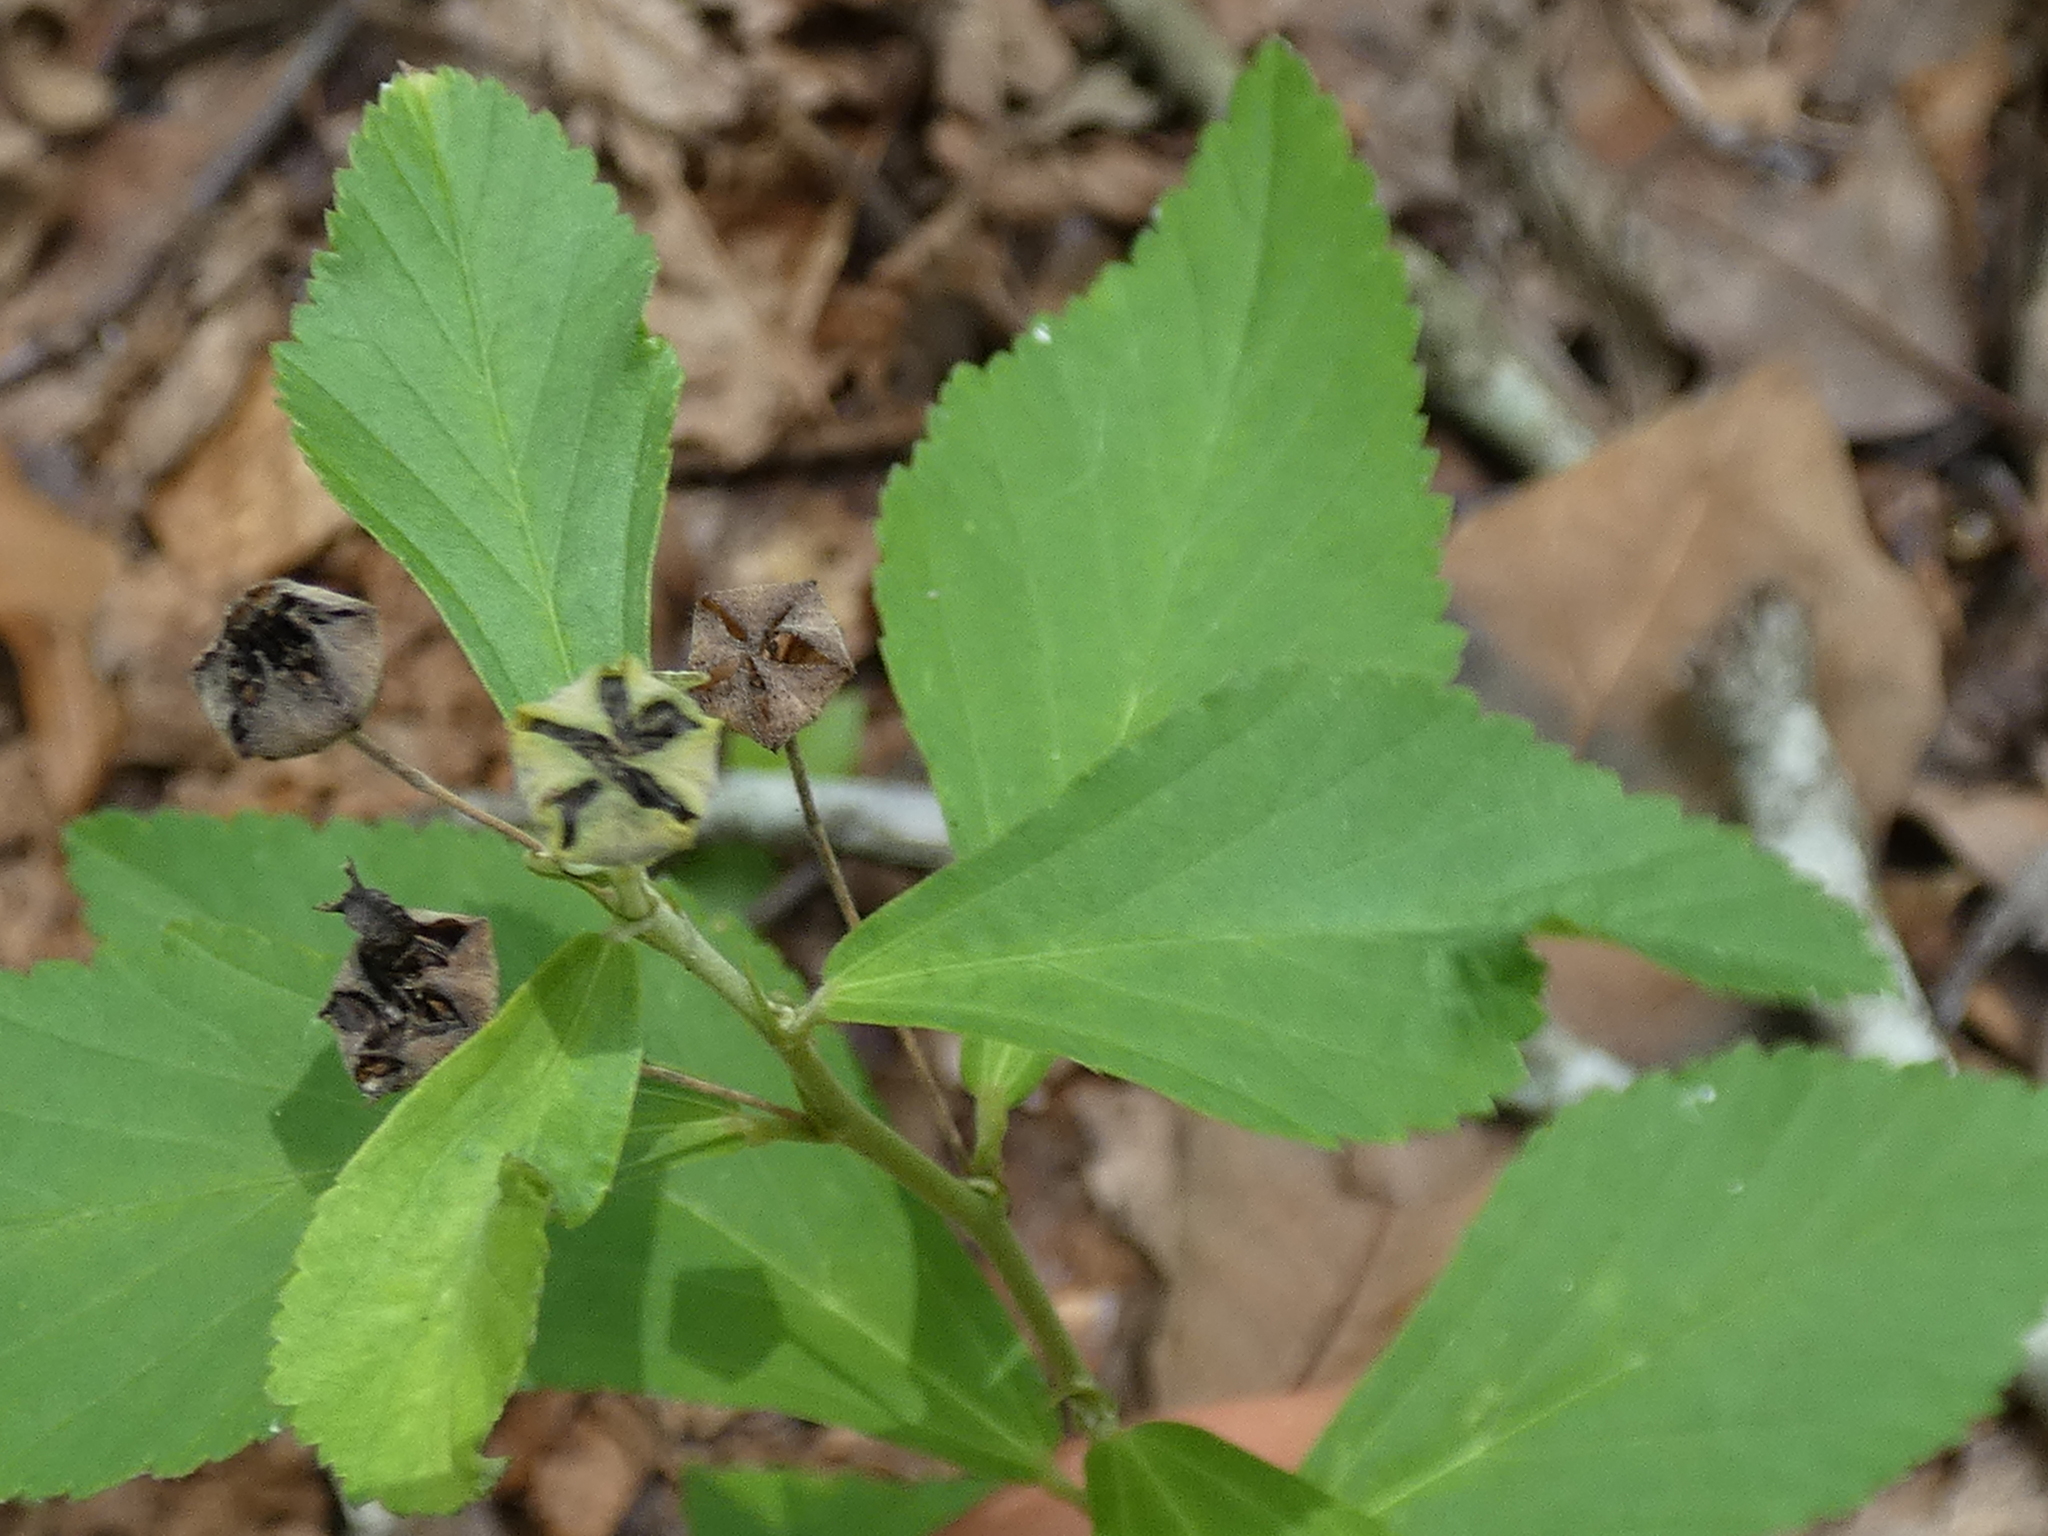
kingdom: Plantae
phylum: Tracheophyta
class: Magnoliopsida
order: Malvales
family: Malvaceae
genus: Sida
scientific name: Sida rhombifolia
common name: Queensland-hemp
